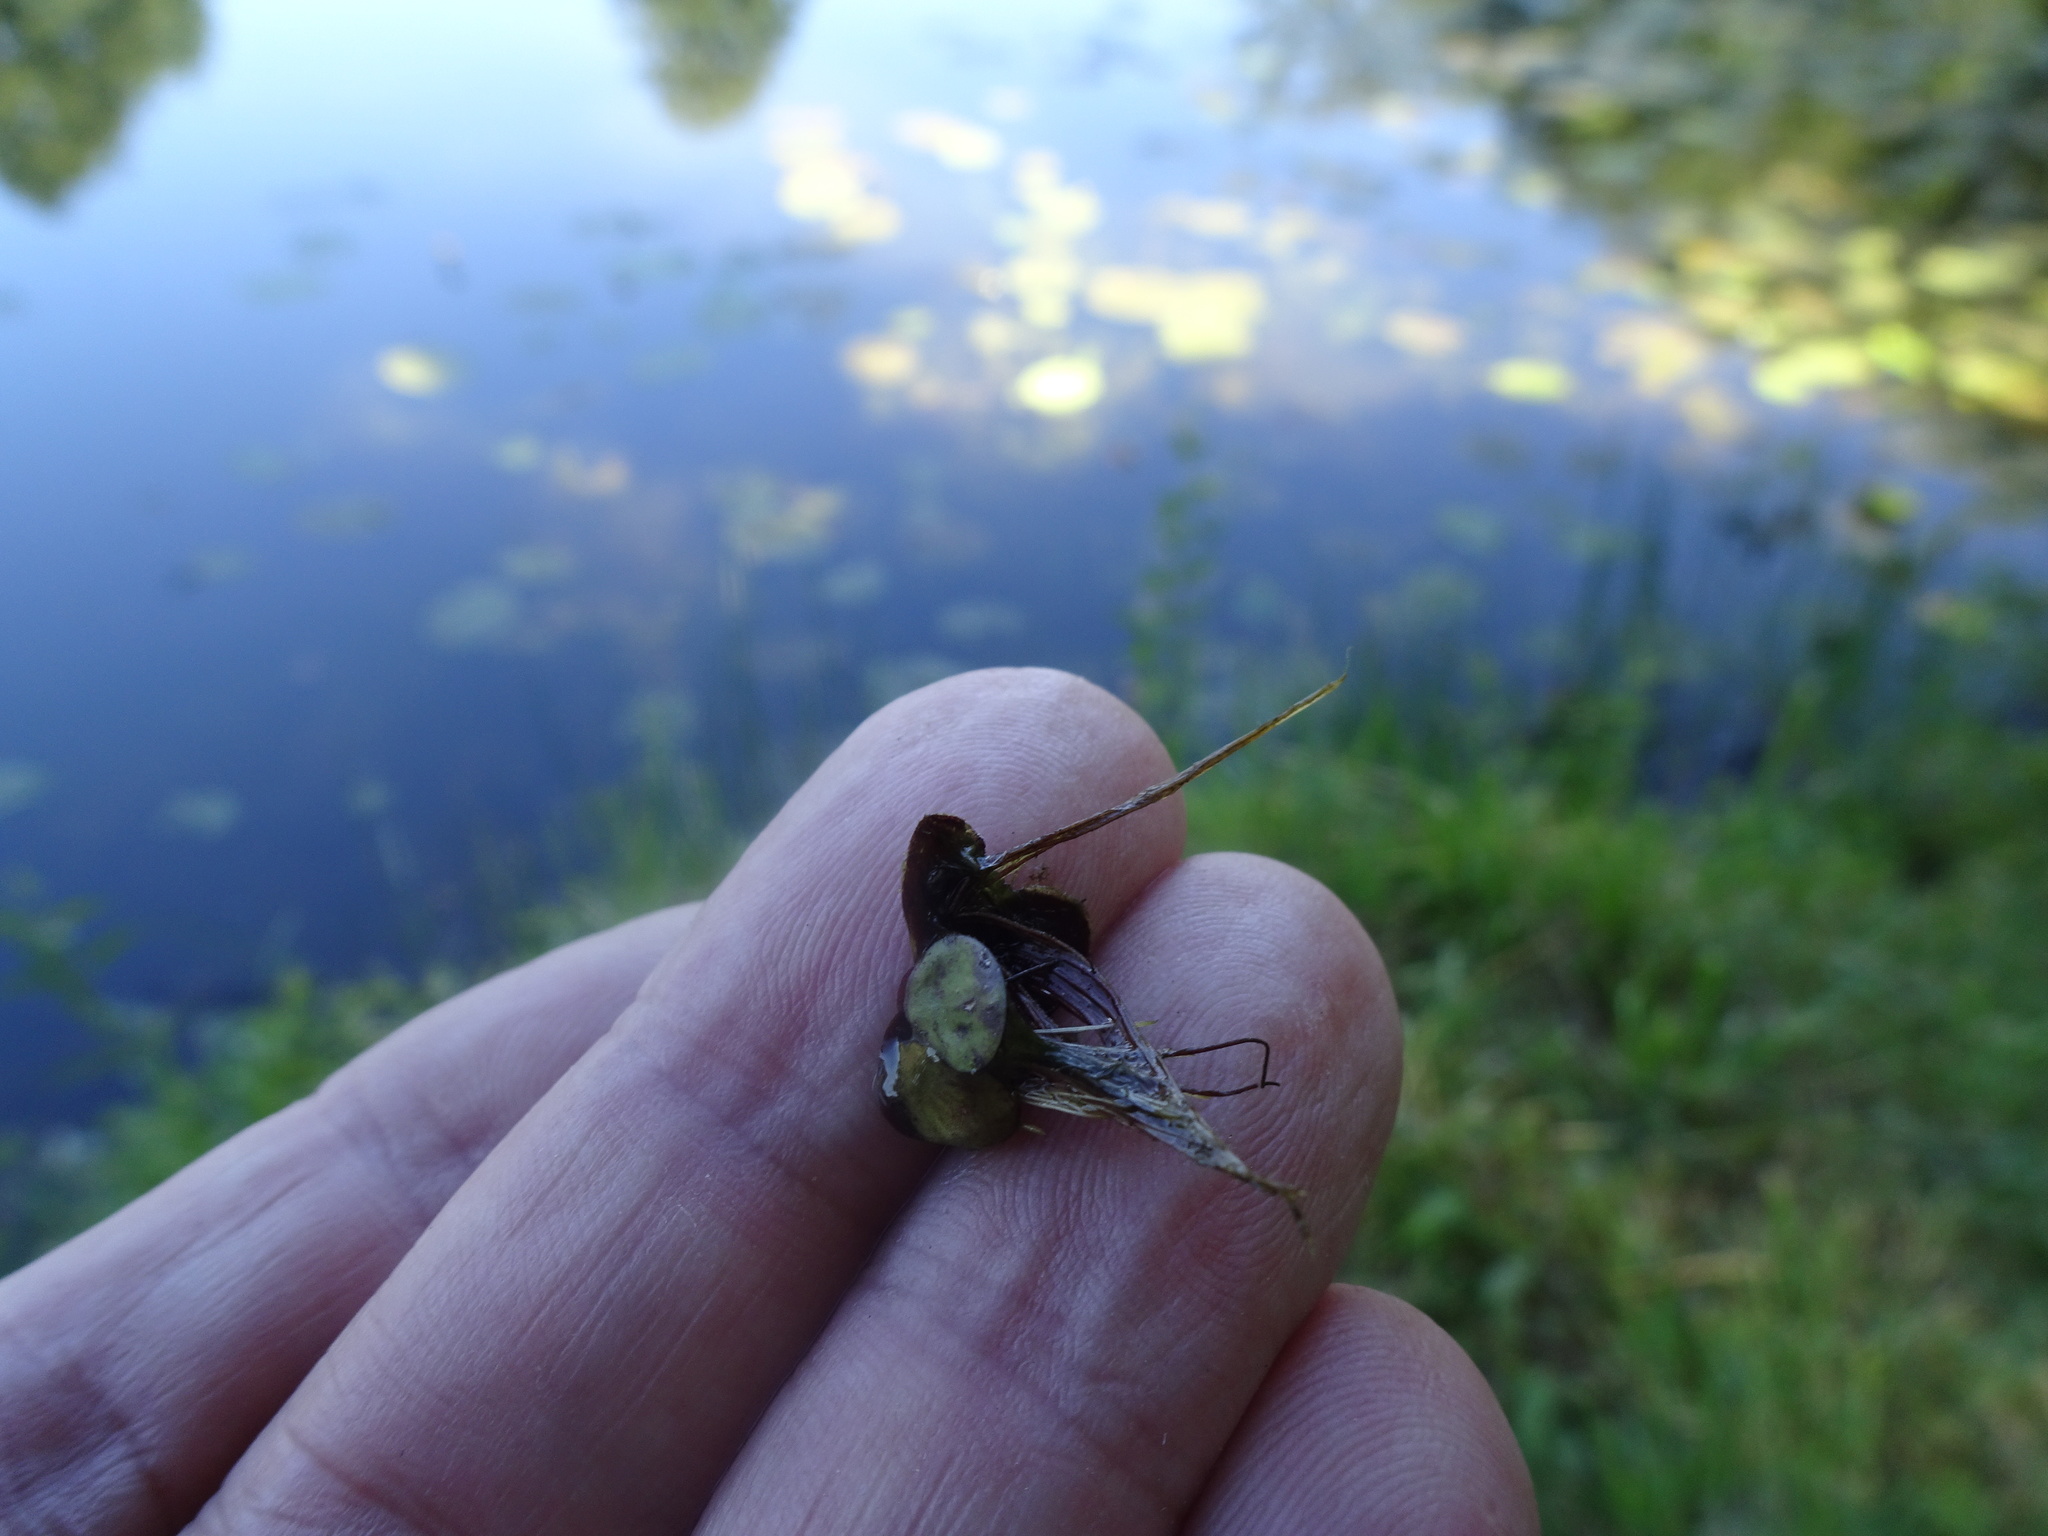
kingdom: Plantae
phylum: Tracheophyta
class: Liliopsida
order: Alismatales
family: Araceae
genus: Spirodela
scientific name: Spirodela polyrhiza
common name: Great duckweed
